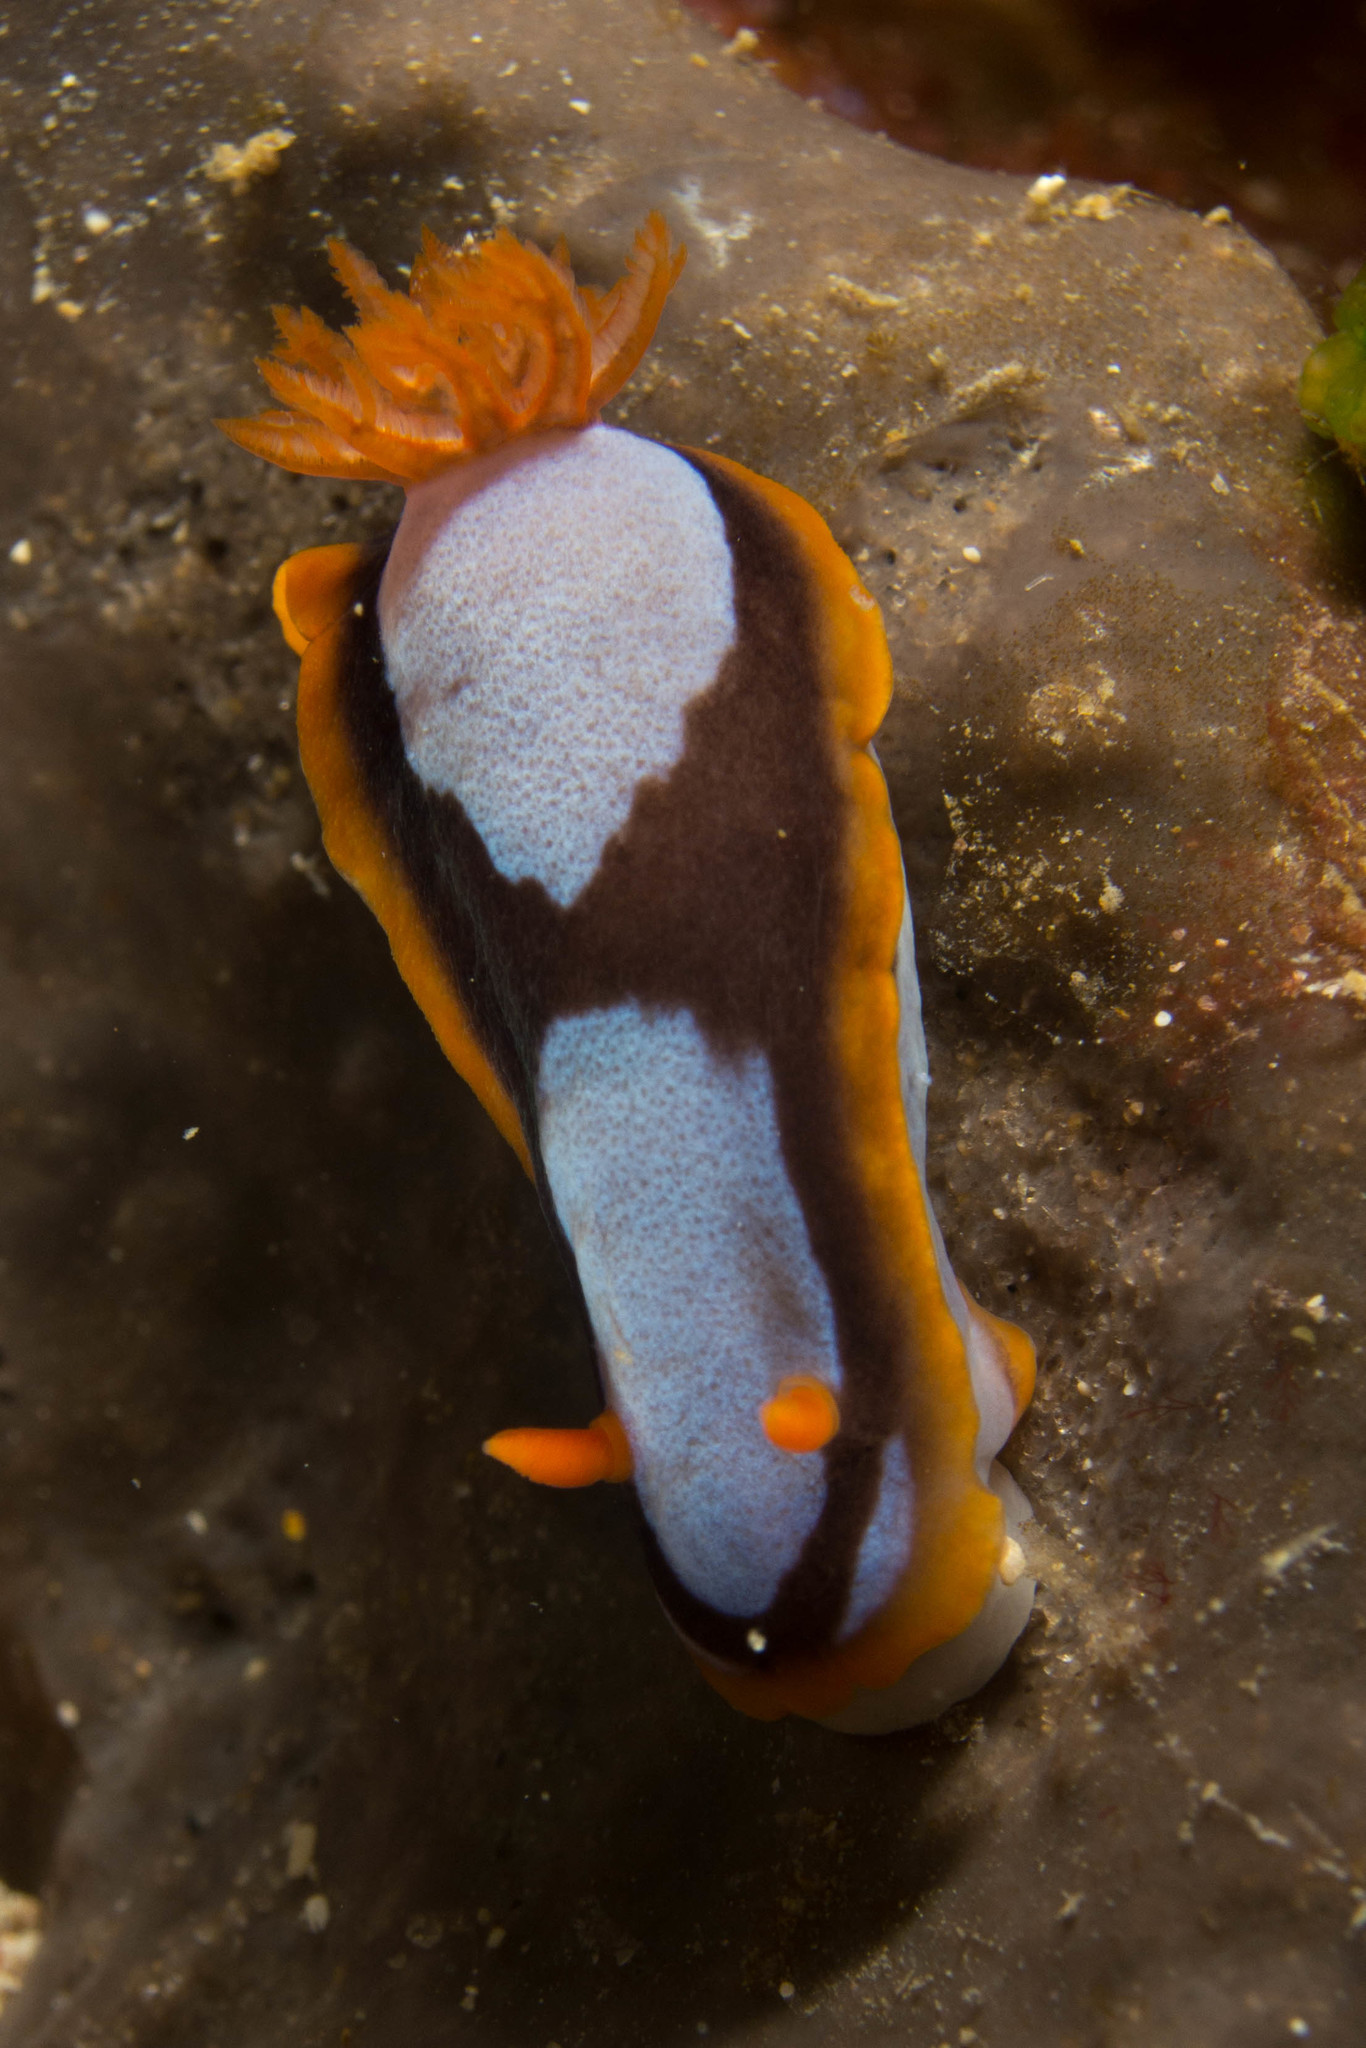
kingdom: Animalia
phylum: Mollusca
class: Gastropoda
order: Nudibranchia
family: Chromodorididae
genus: Chromodoris
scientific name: Chromodoris westraliensis
